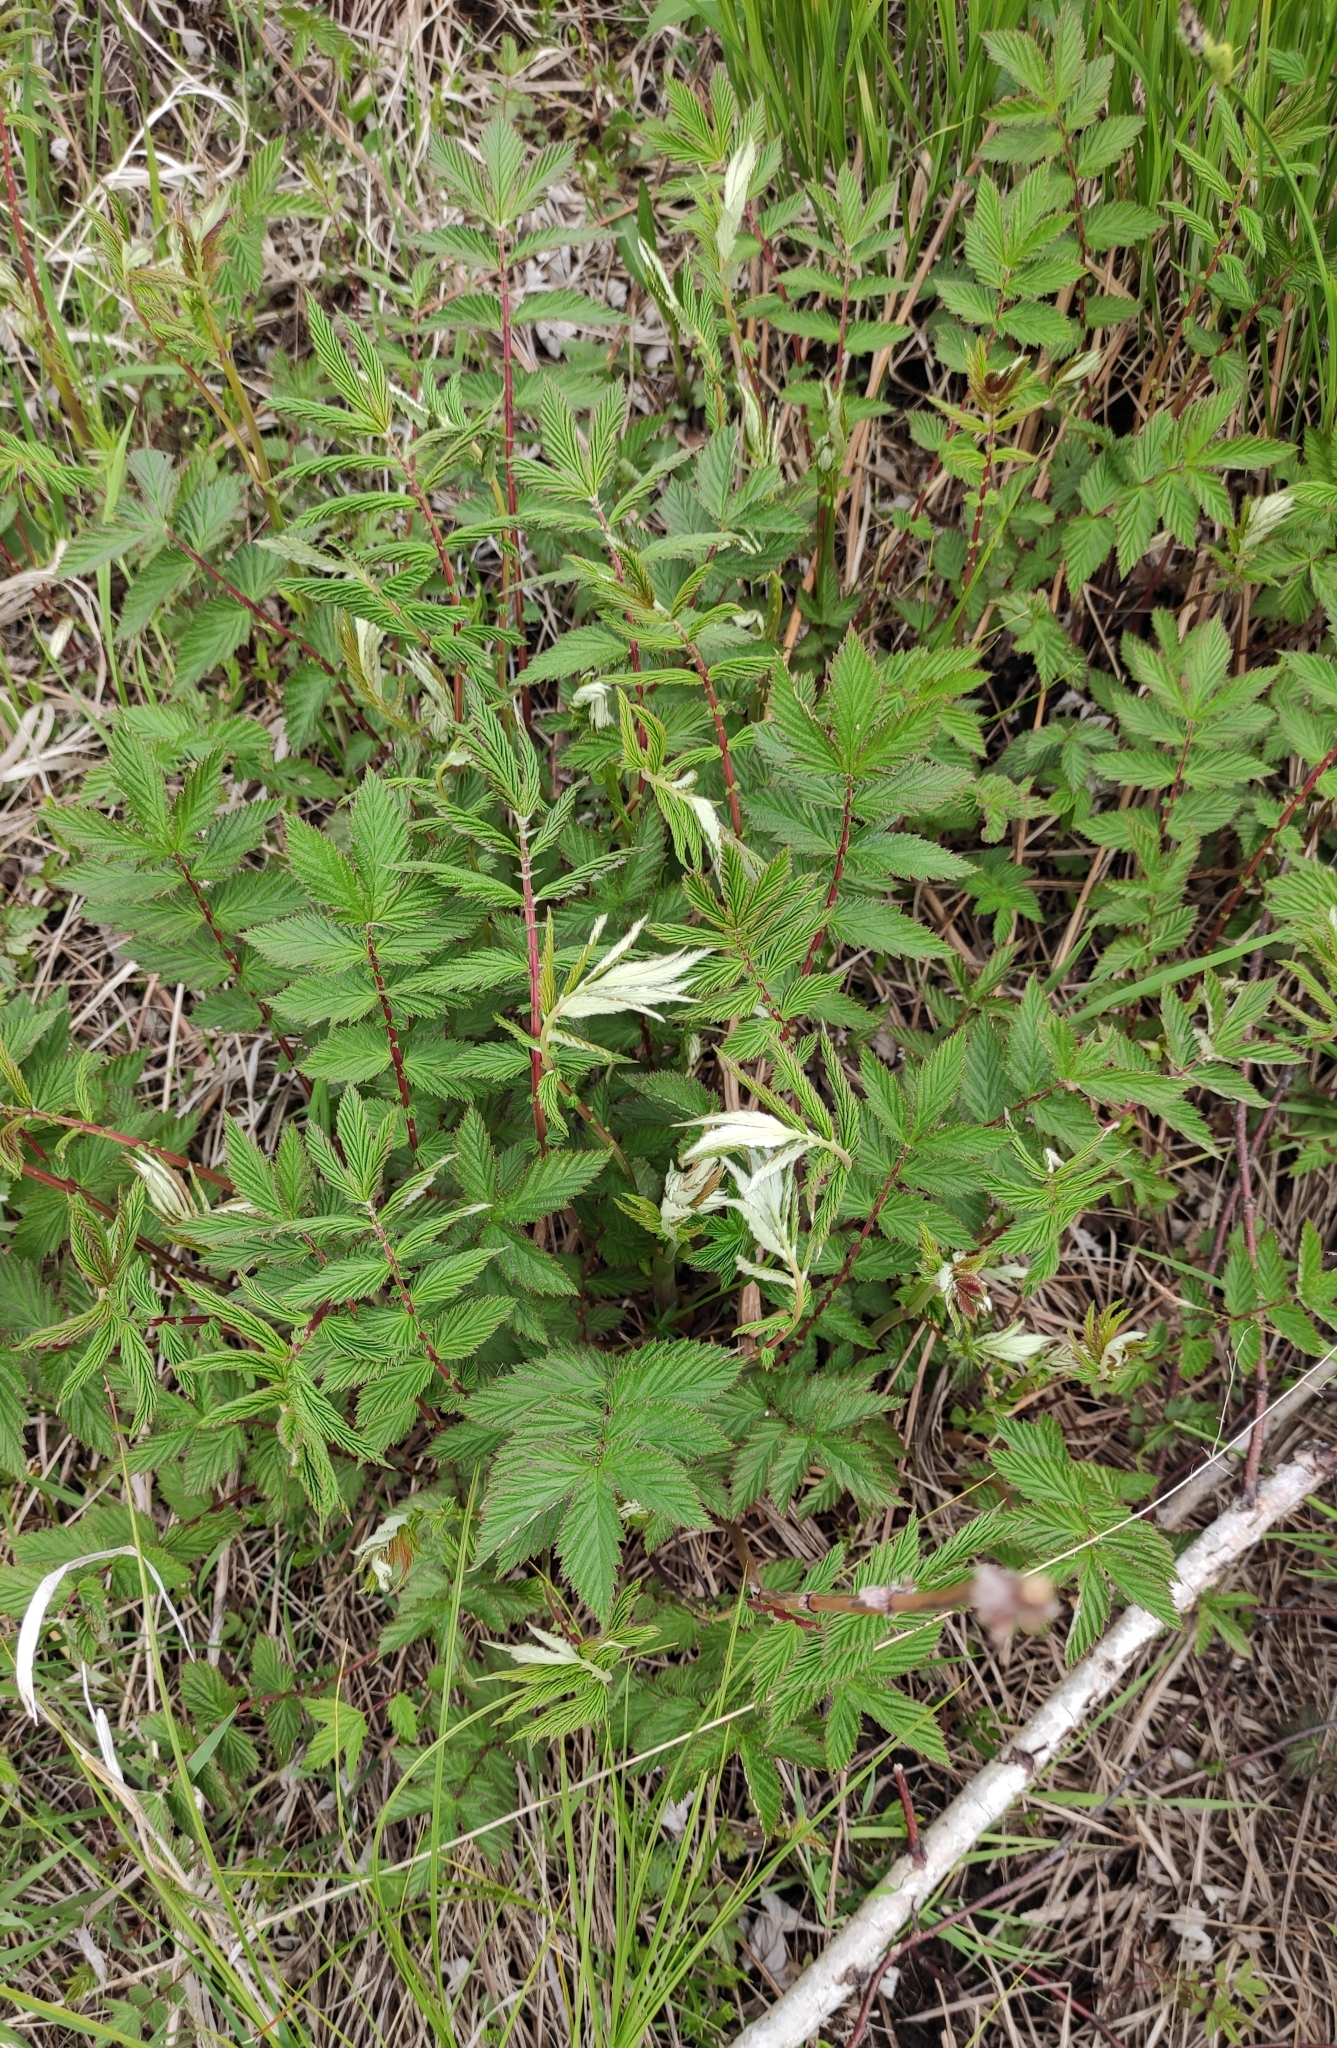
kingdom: Plantae
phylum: Tracheophyta
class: Magnoliopsida
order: Rosales
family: Rosaceae
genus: Filipendula
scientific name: Filipendula ulmaria
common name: Meadowsweet
